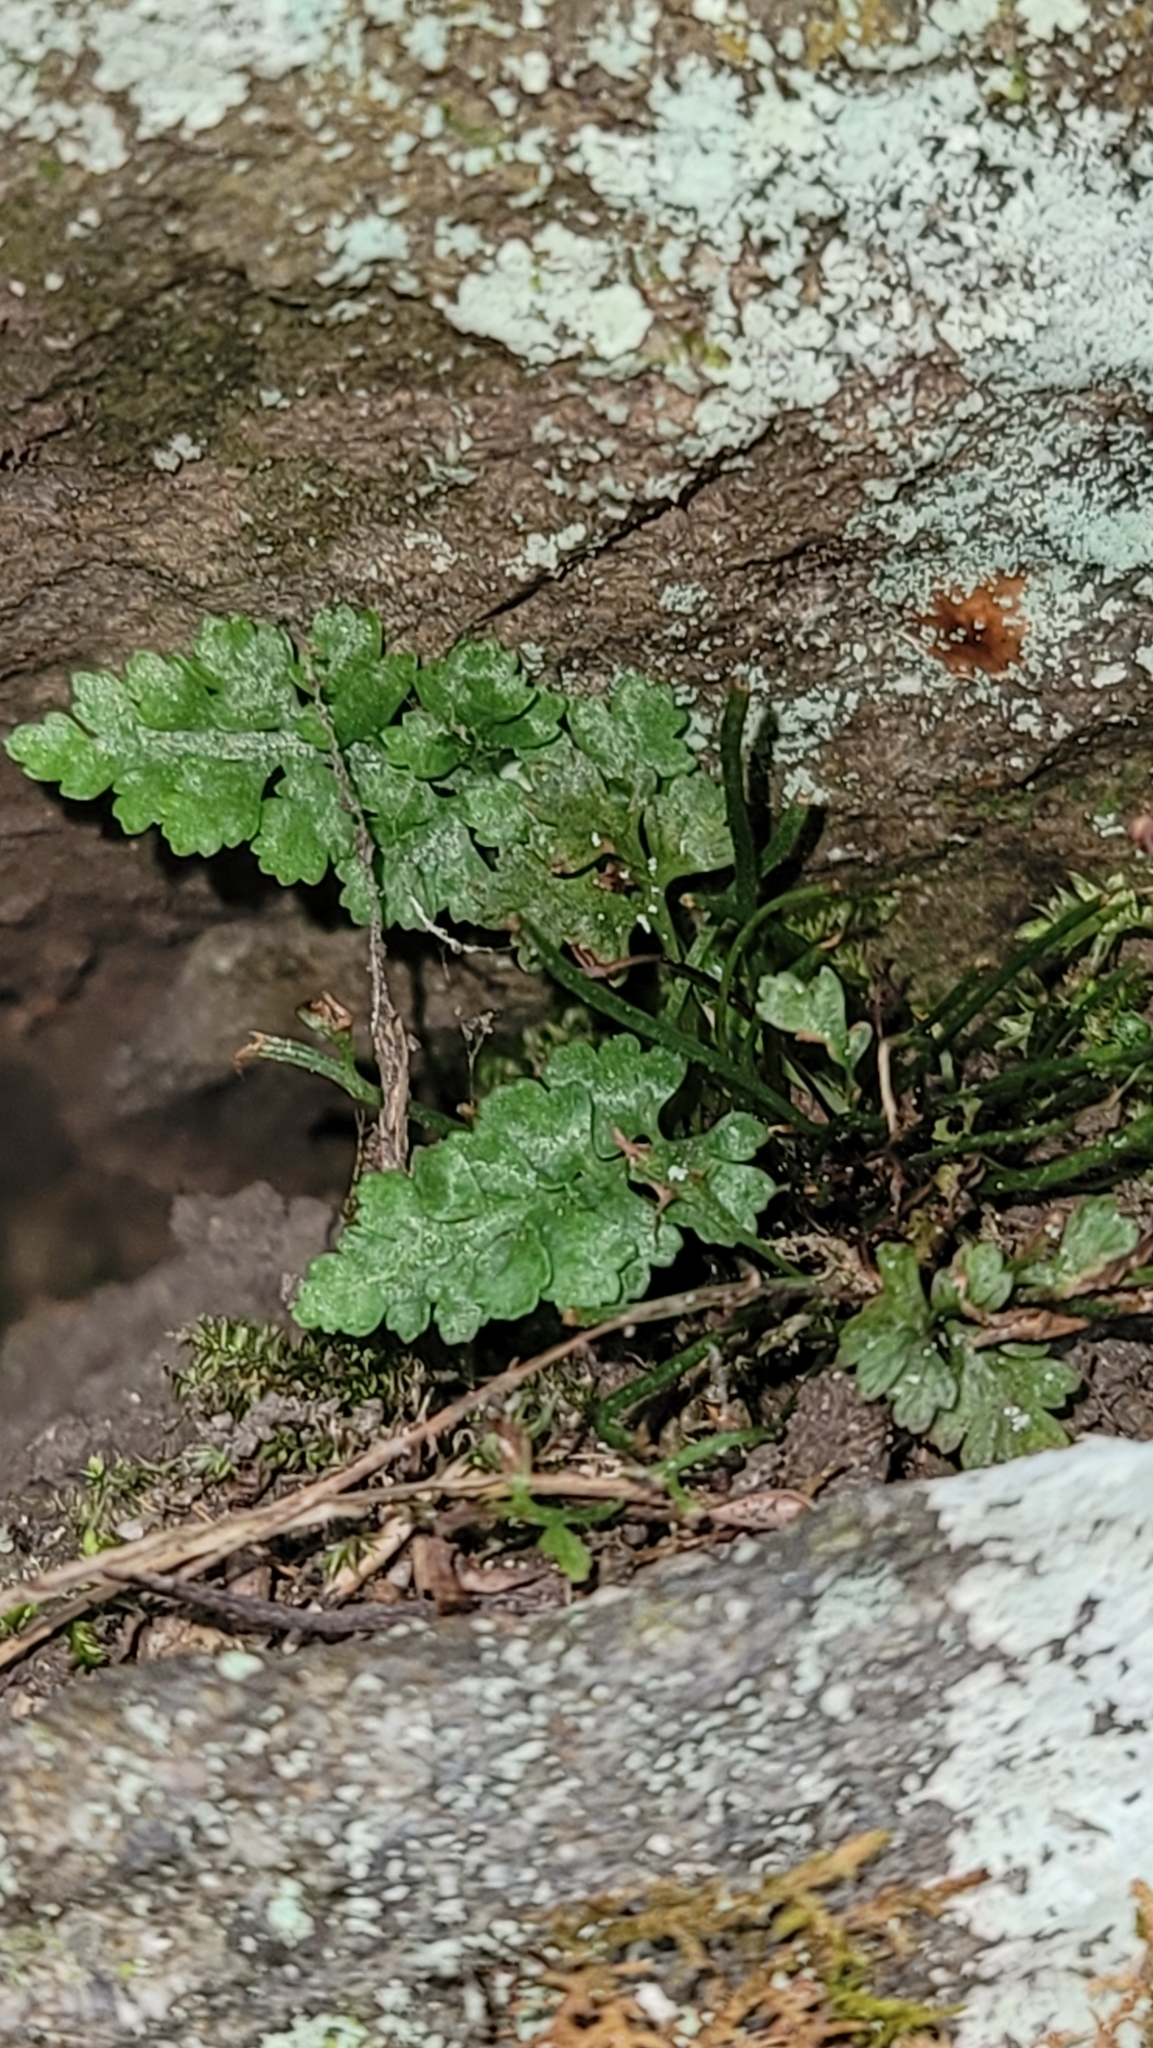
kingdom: Plantae
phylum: Tracheophyta
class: Polypodiopsida
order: Polypodiales
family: Aspleniaceae
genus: Asplenium
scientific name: Asplenium montanum
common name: Mountain spleenwort
